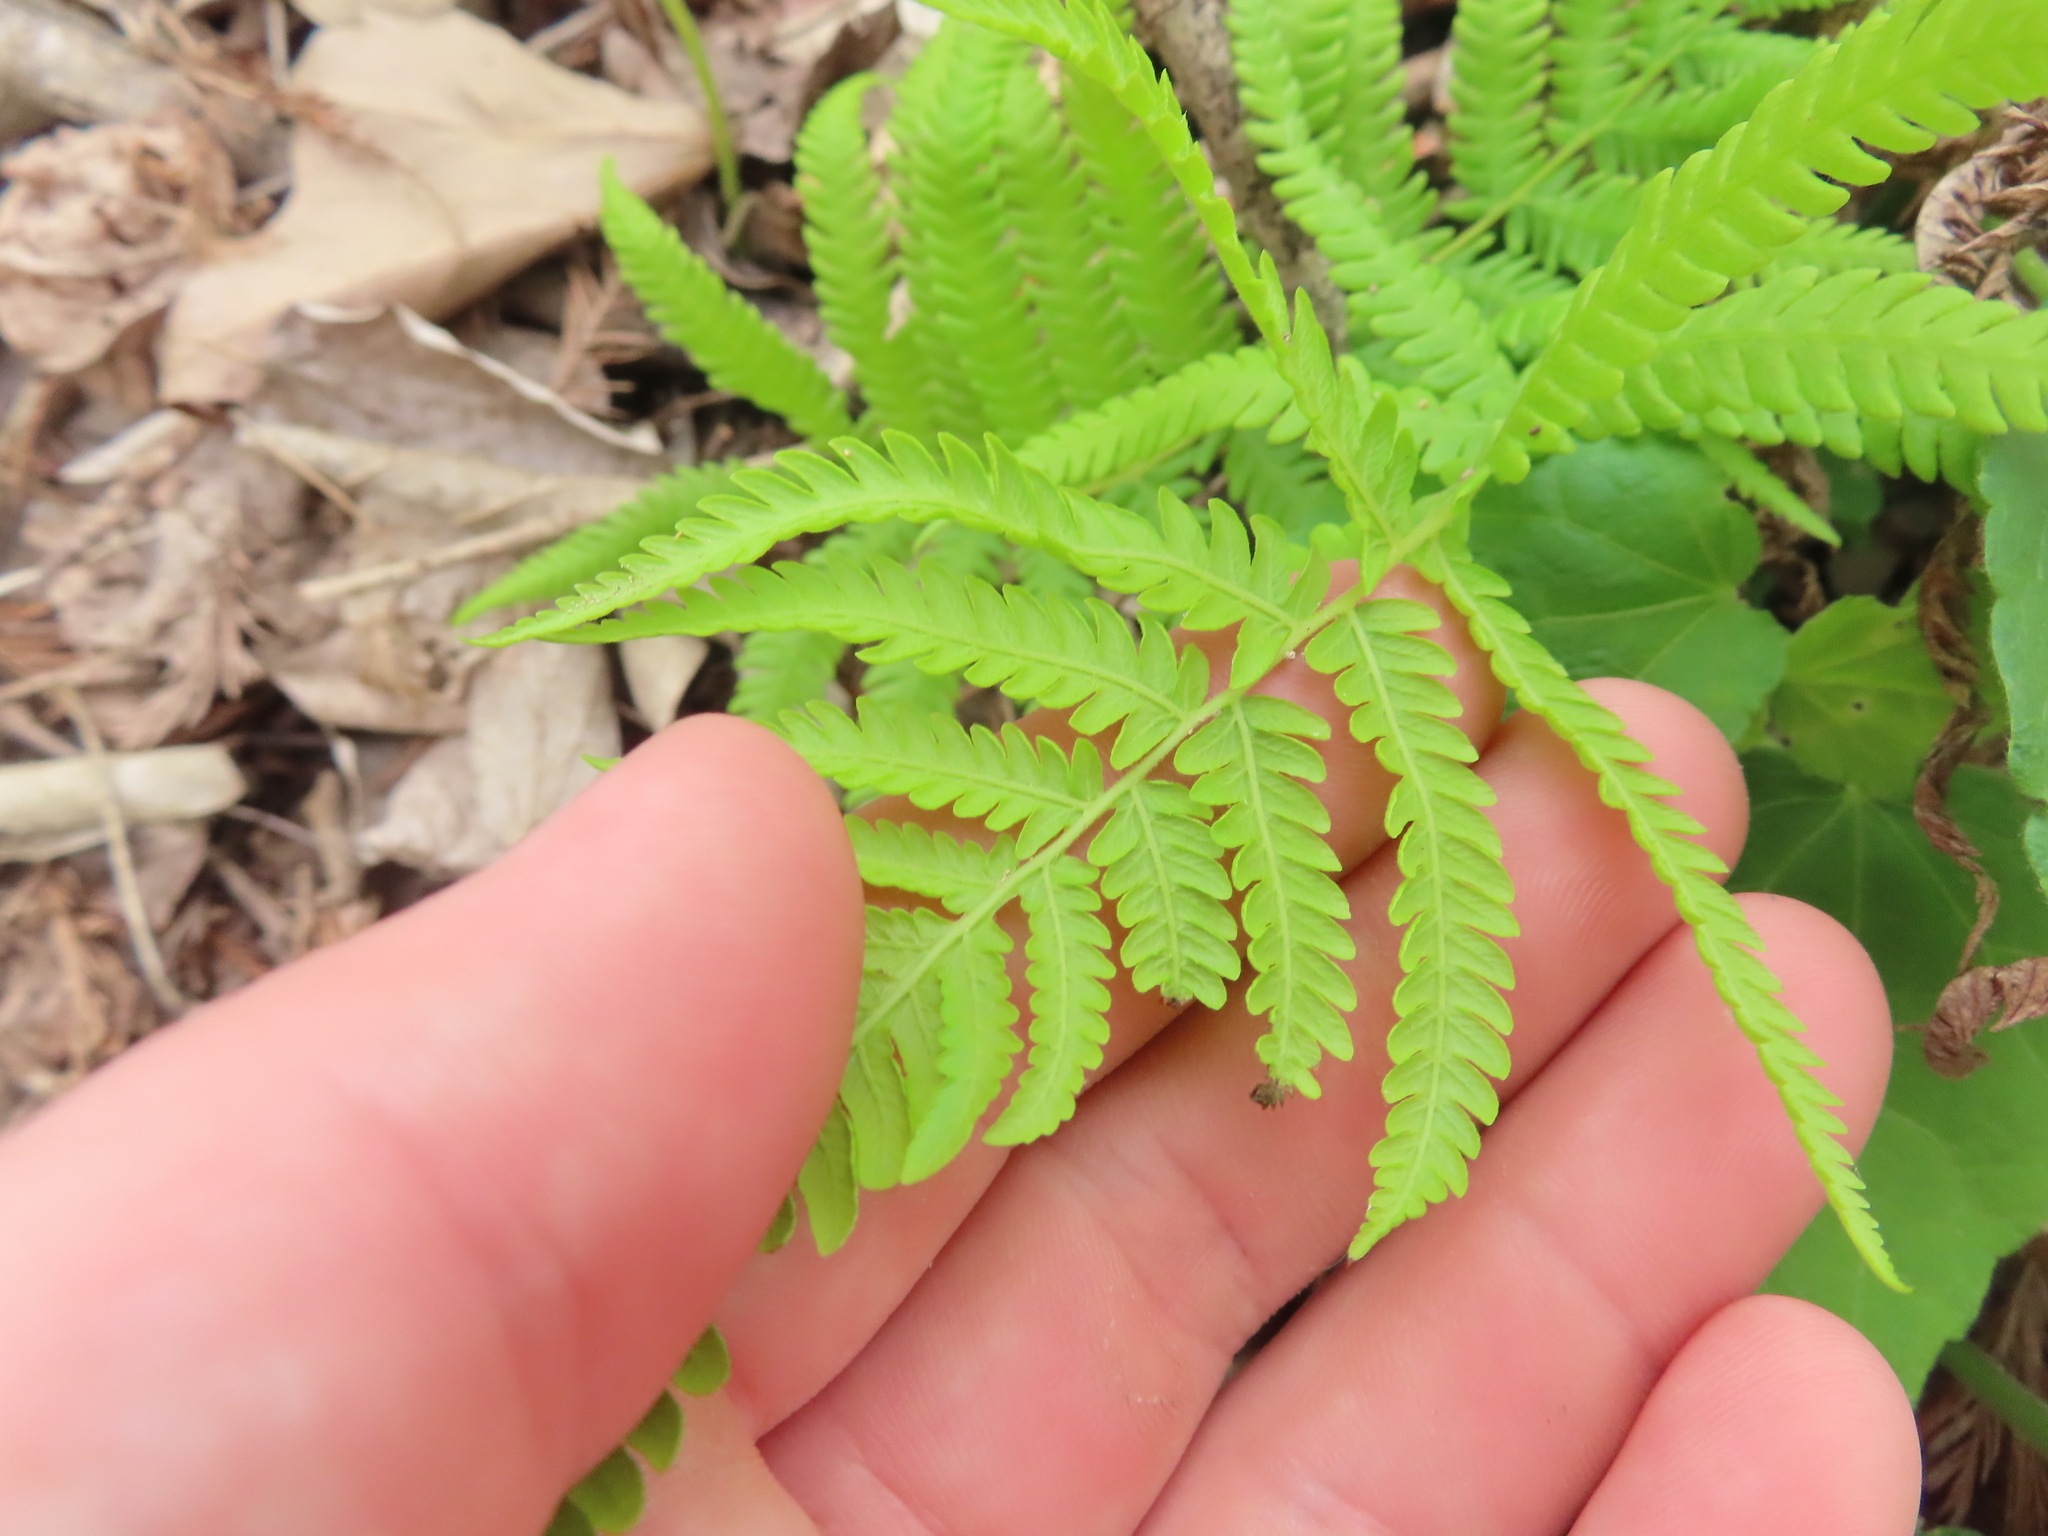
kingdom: Plantae
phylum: Tracheophyta
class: Polypodiopsida
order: Polypodiales
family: Thelypteridaceae
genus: Pelazoneuron
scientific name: Pelazoneuron ovatum
